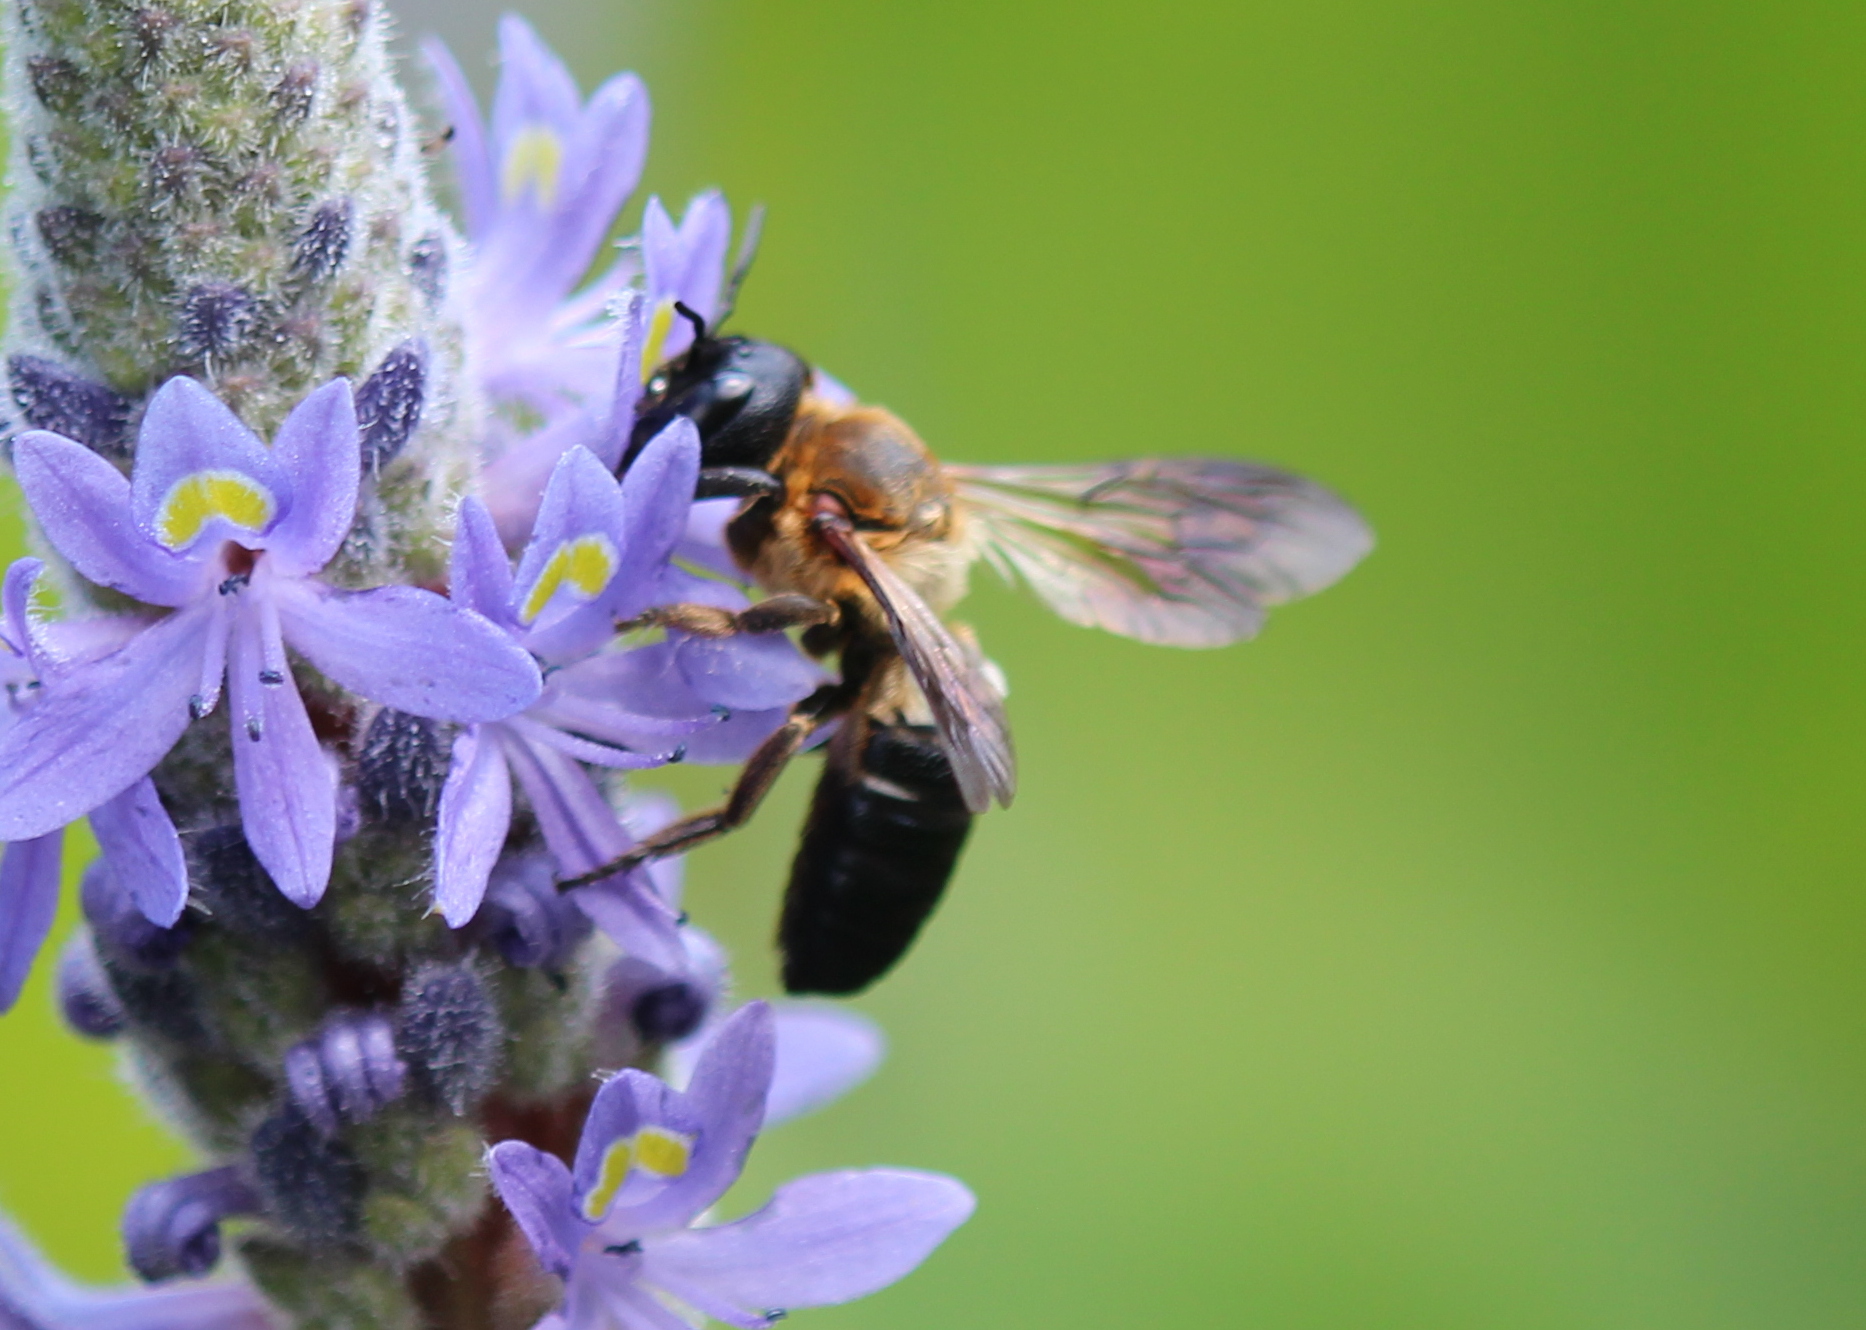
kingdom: Animalia
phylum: Arthropoda
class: Insecta
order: Hymenoptera
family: Megachilidae
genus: Megachile
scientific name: Megachile sculpturalis
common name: Sculptured resin bee
